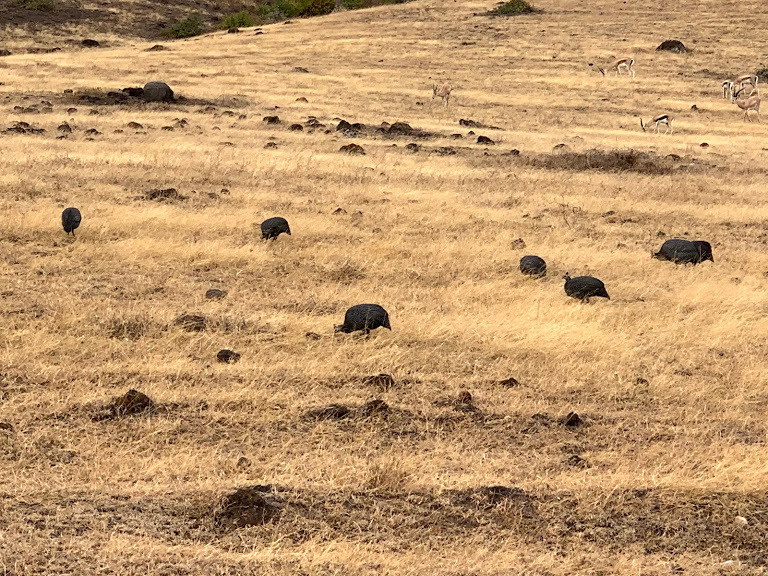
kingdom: Animalia
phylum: Chordata
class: Aves
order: Galliformes
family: Numididae
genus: Numida
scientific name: Numida meleagris
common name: Helmeted guineafowl
